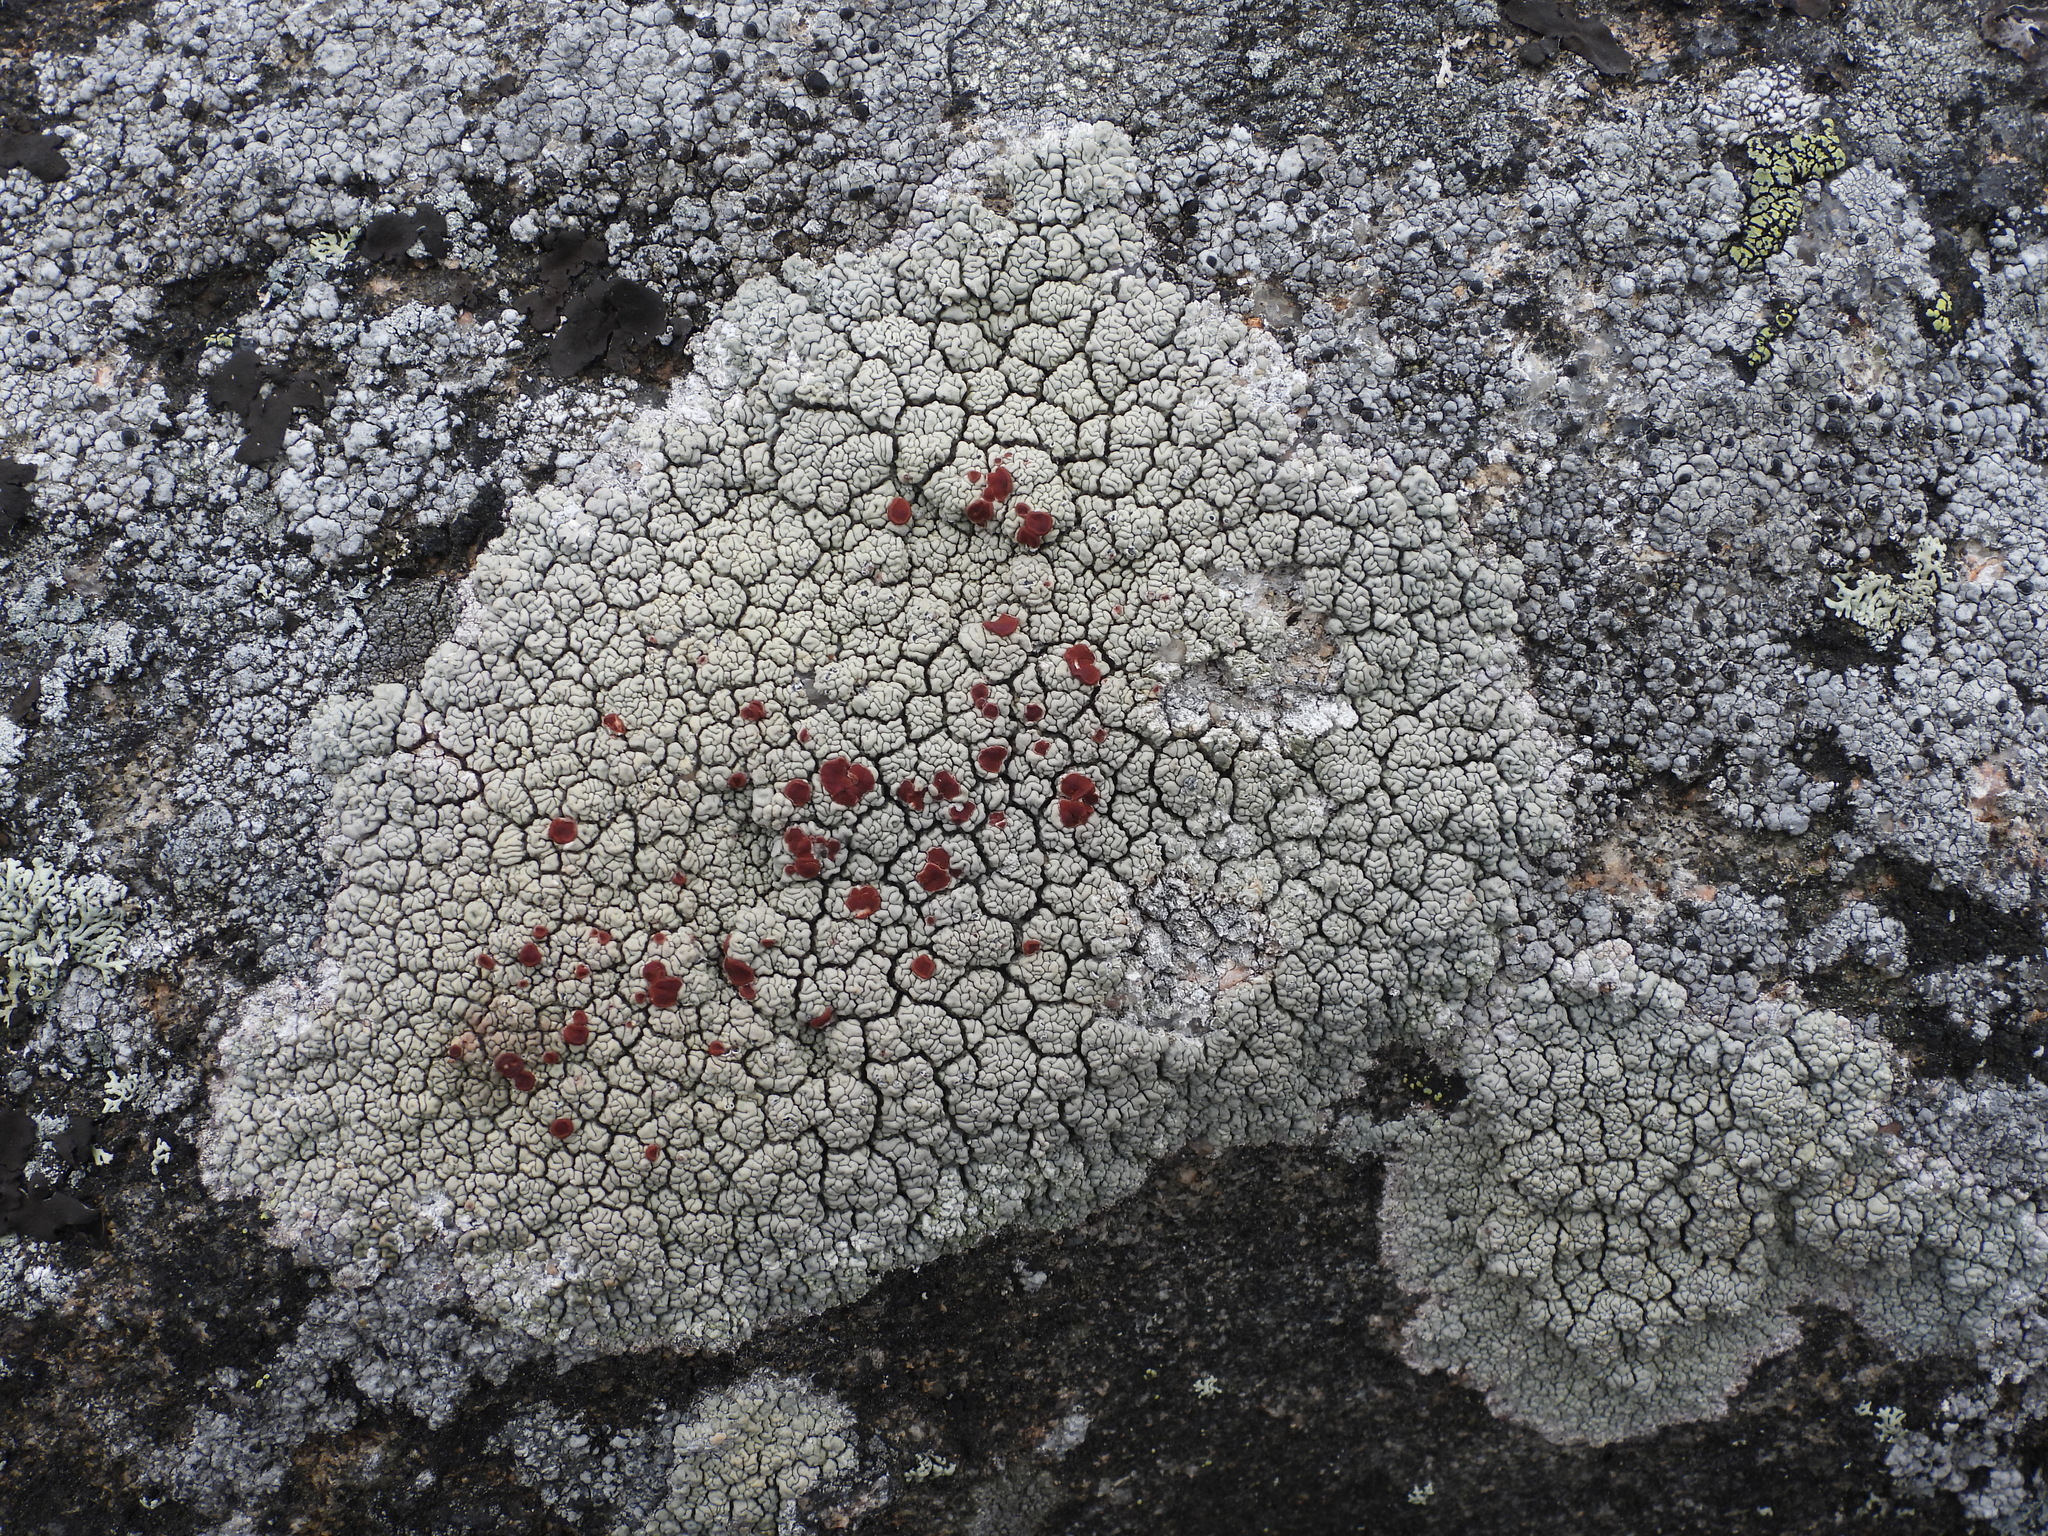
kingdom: Fungi
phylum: Ascomycota
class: Lecanoromycetes
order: Umbilicariales
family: Ophioparmaceae
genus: Ophioparma
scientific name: Ophioparma ventosa
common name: Blood-spot
